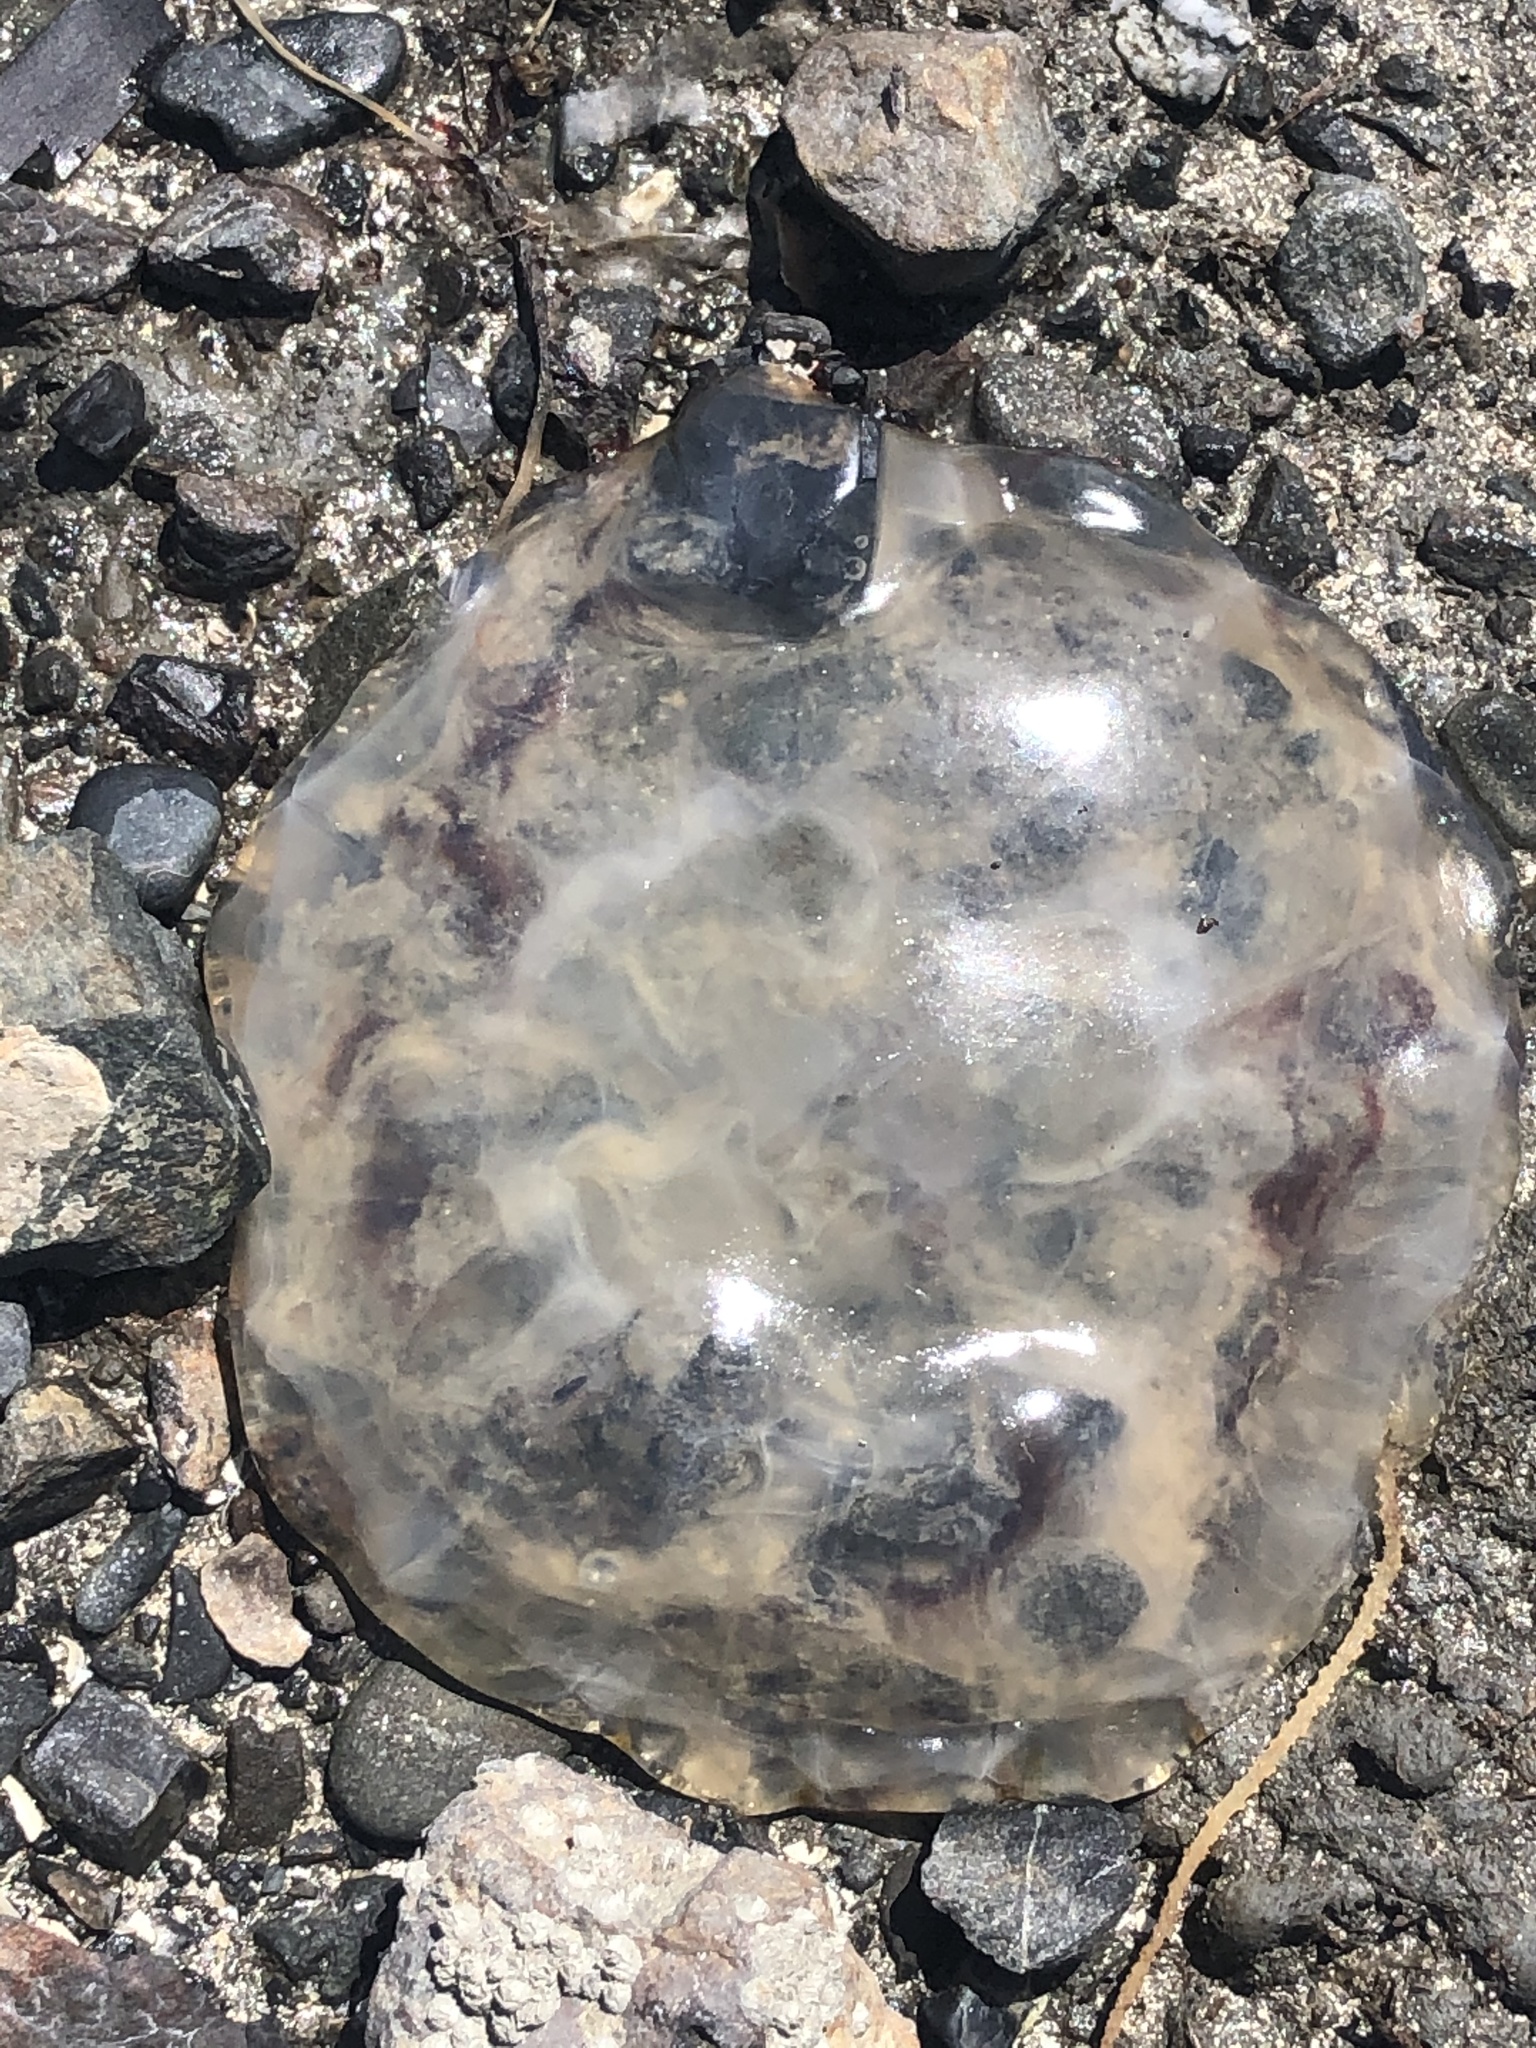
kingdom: Animalia
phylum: Cnidaria
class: Scyphozoa
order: Semaeostomeae
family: Pelagiidae
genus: Chrysaora
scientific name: Chrysaora fuscescens
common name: Sea nettle
